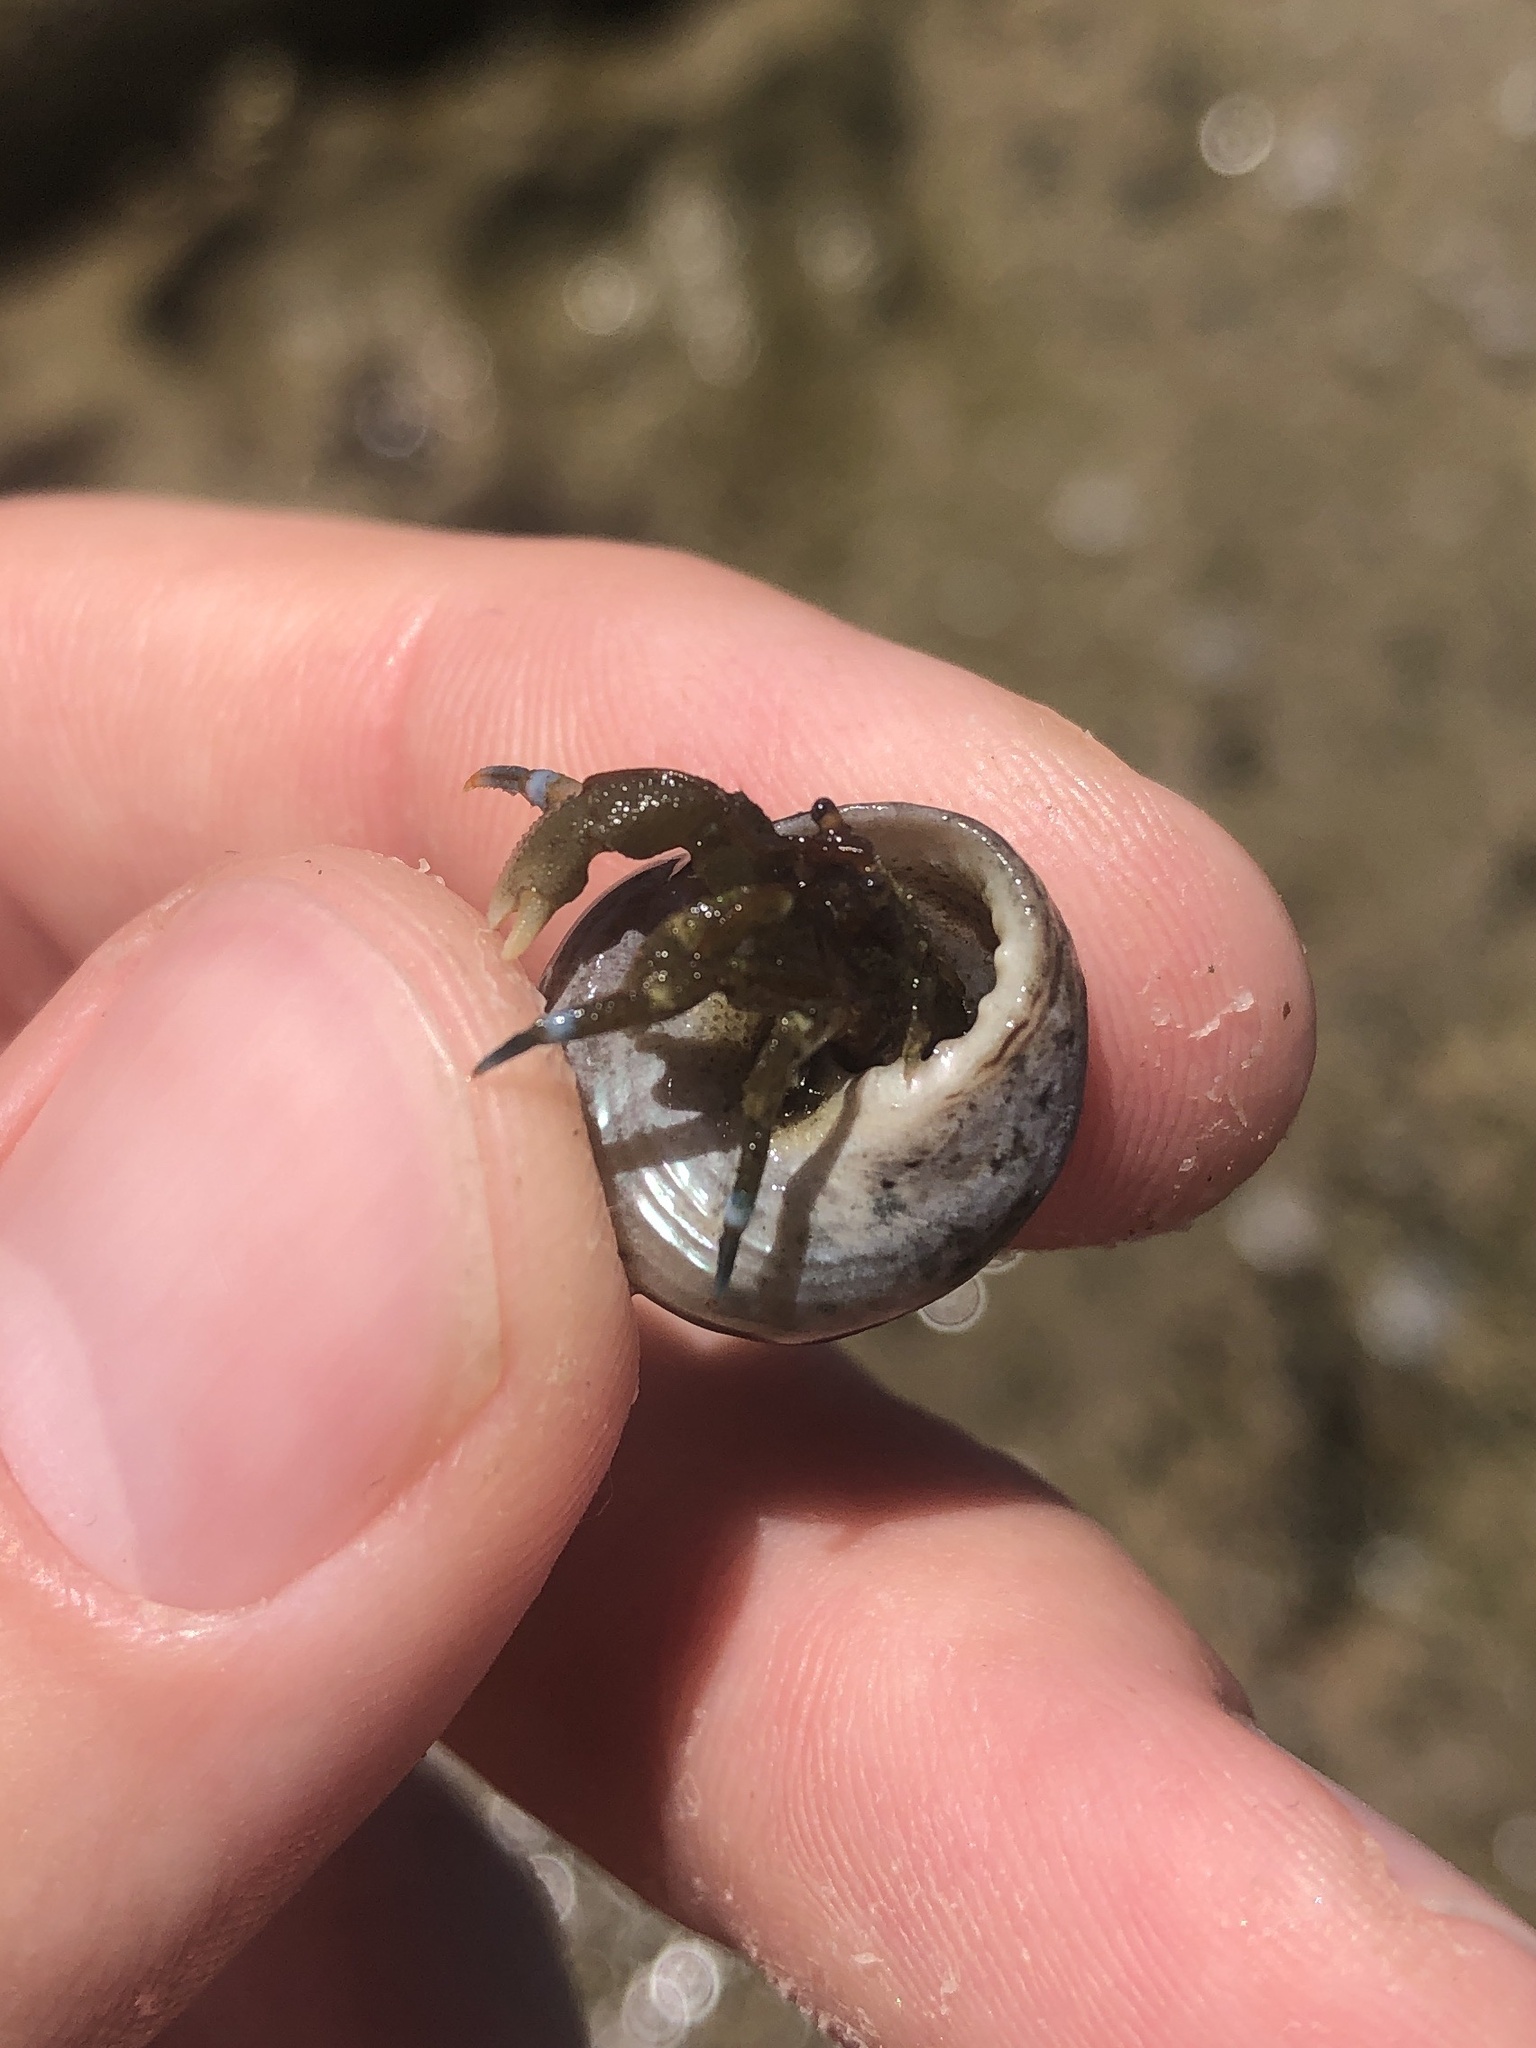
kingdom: Animalia
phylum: Arthropoda
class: Malacostraca
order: Decapoda
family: Paguridae
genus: Pagurus
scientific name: Pagurus samuelis
